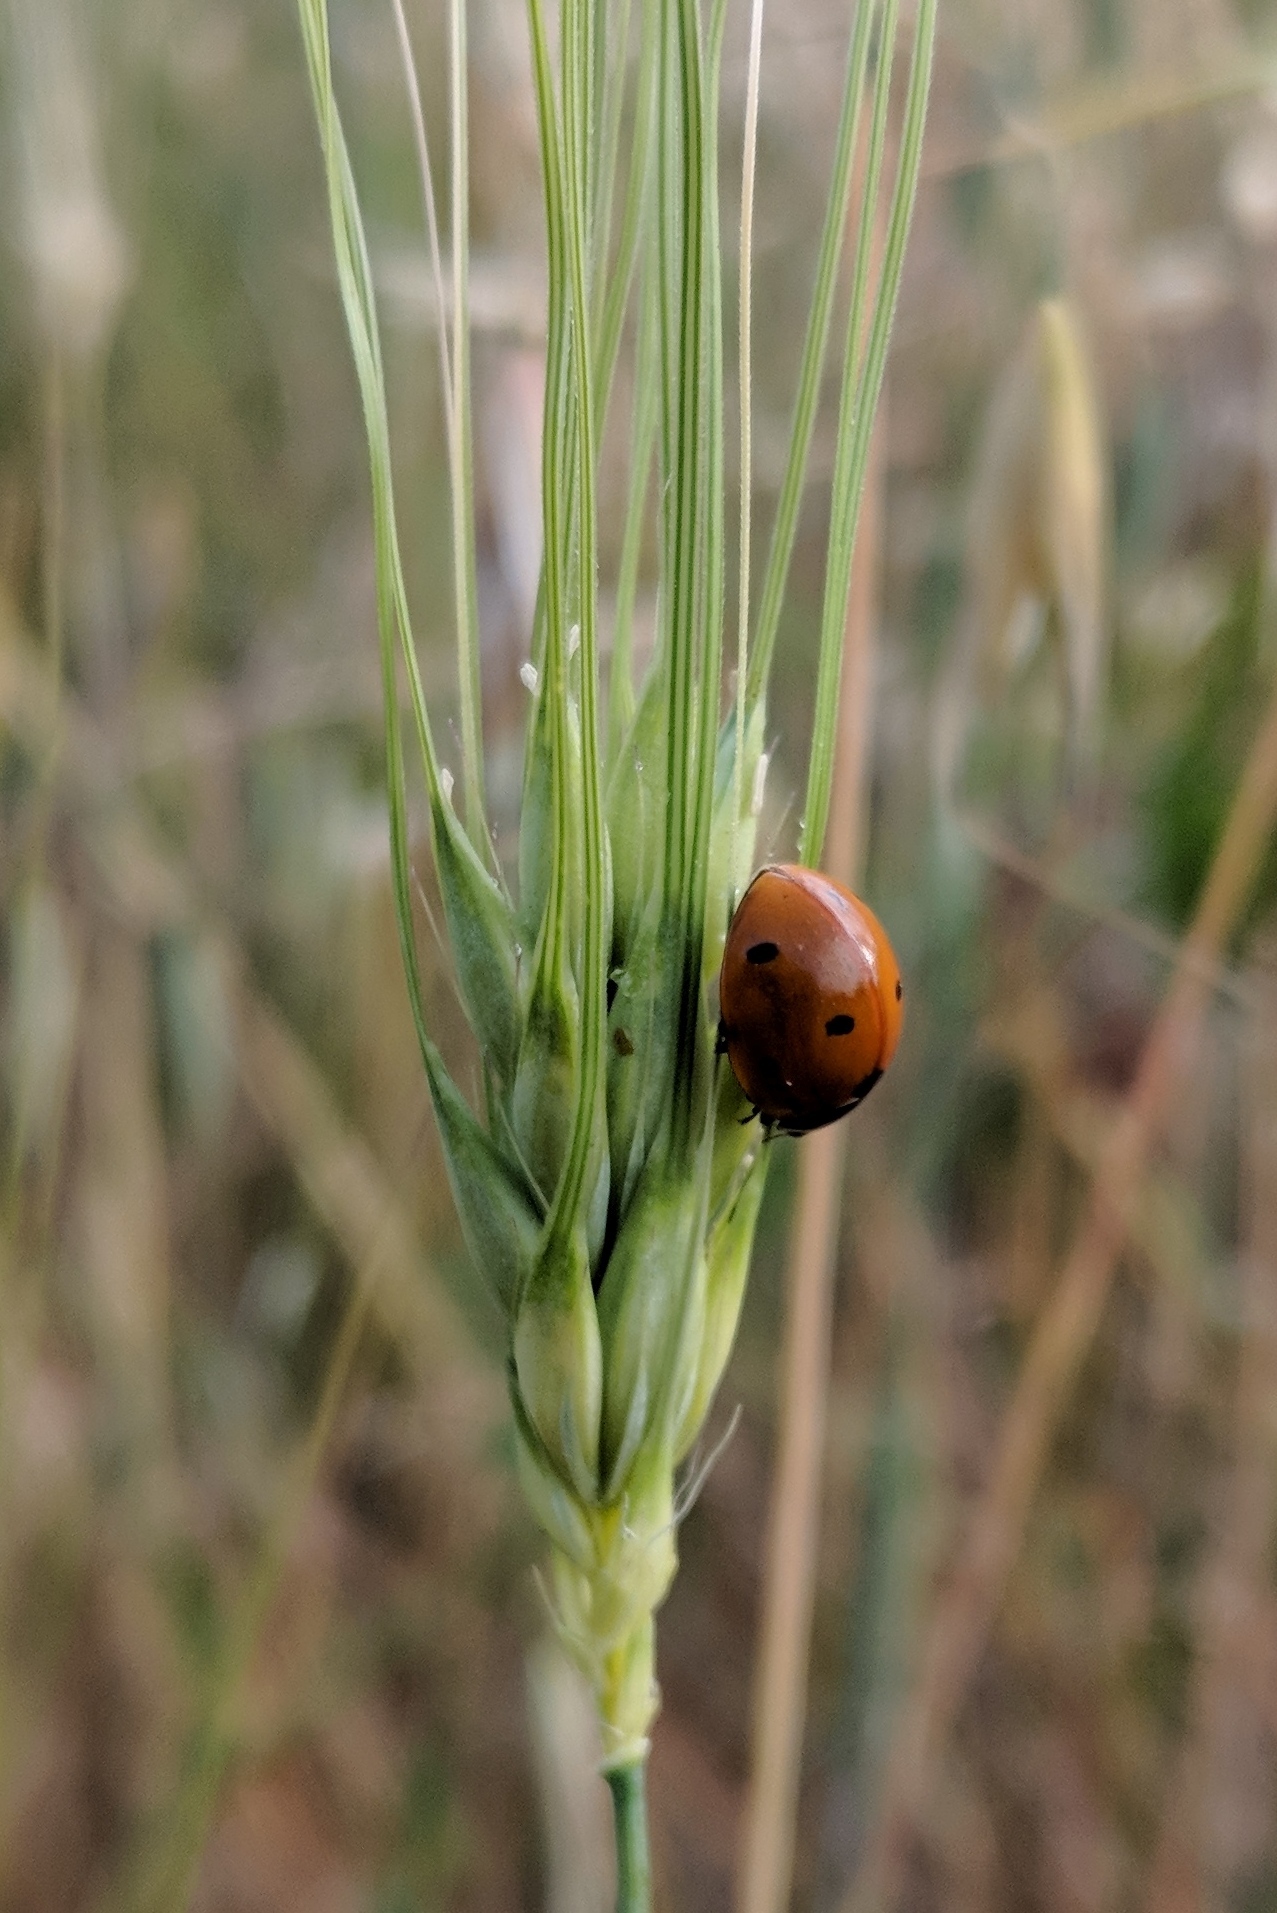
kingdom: Animalia
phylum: Arthropoda
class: Insecta
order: Coleoptera
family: Coccinellidae
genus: Coccinella
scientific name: Coccinella septempunctata
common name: Sevenspotted lady beetle
